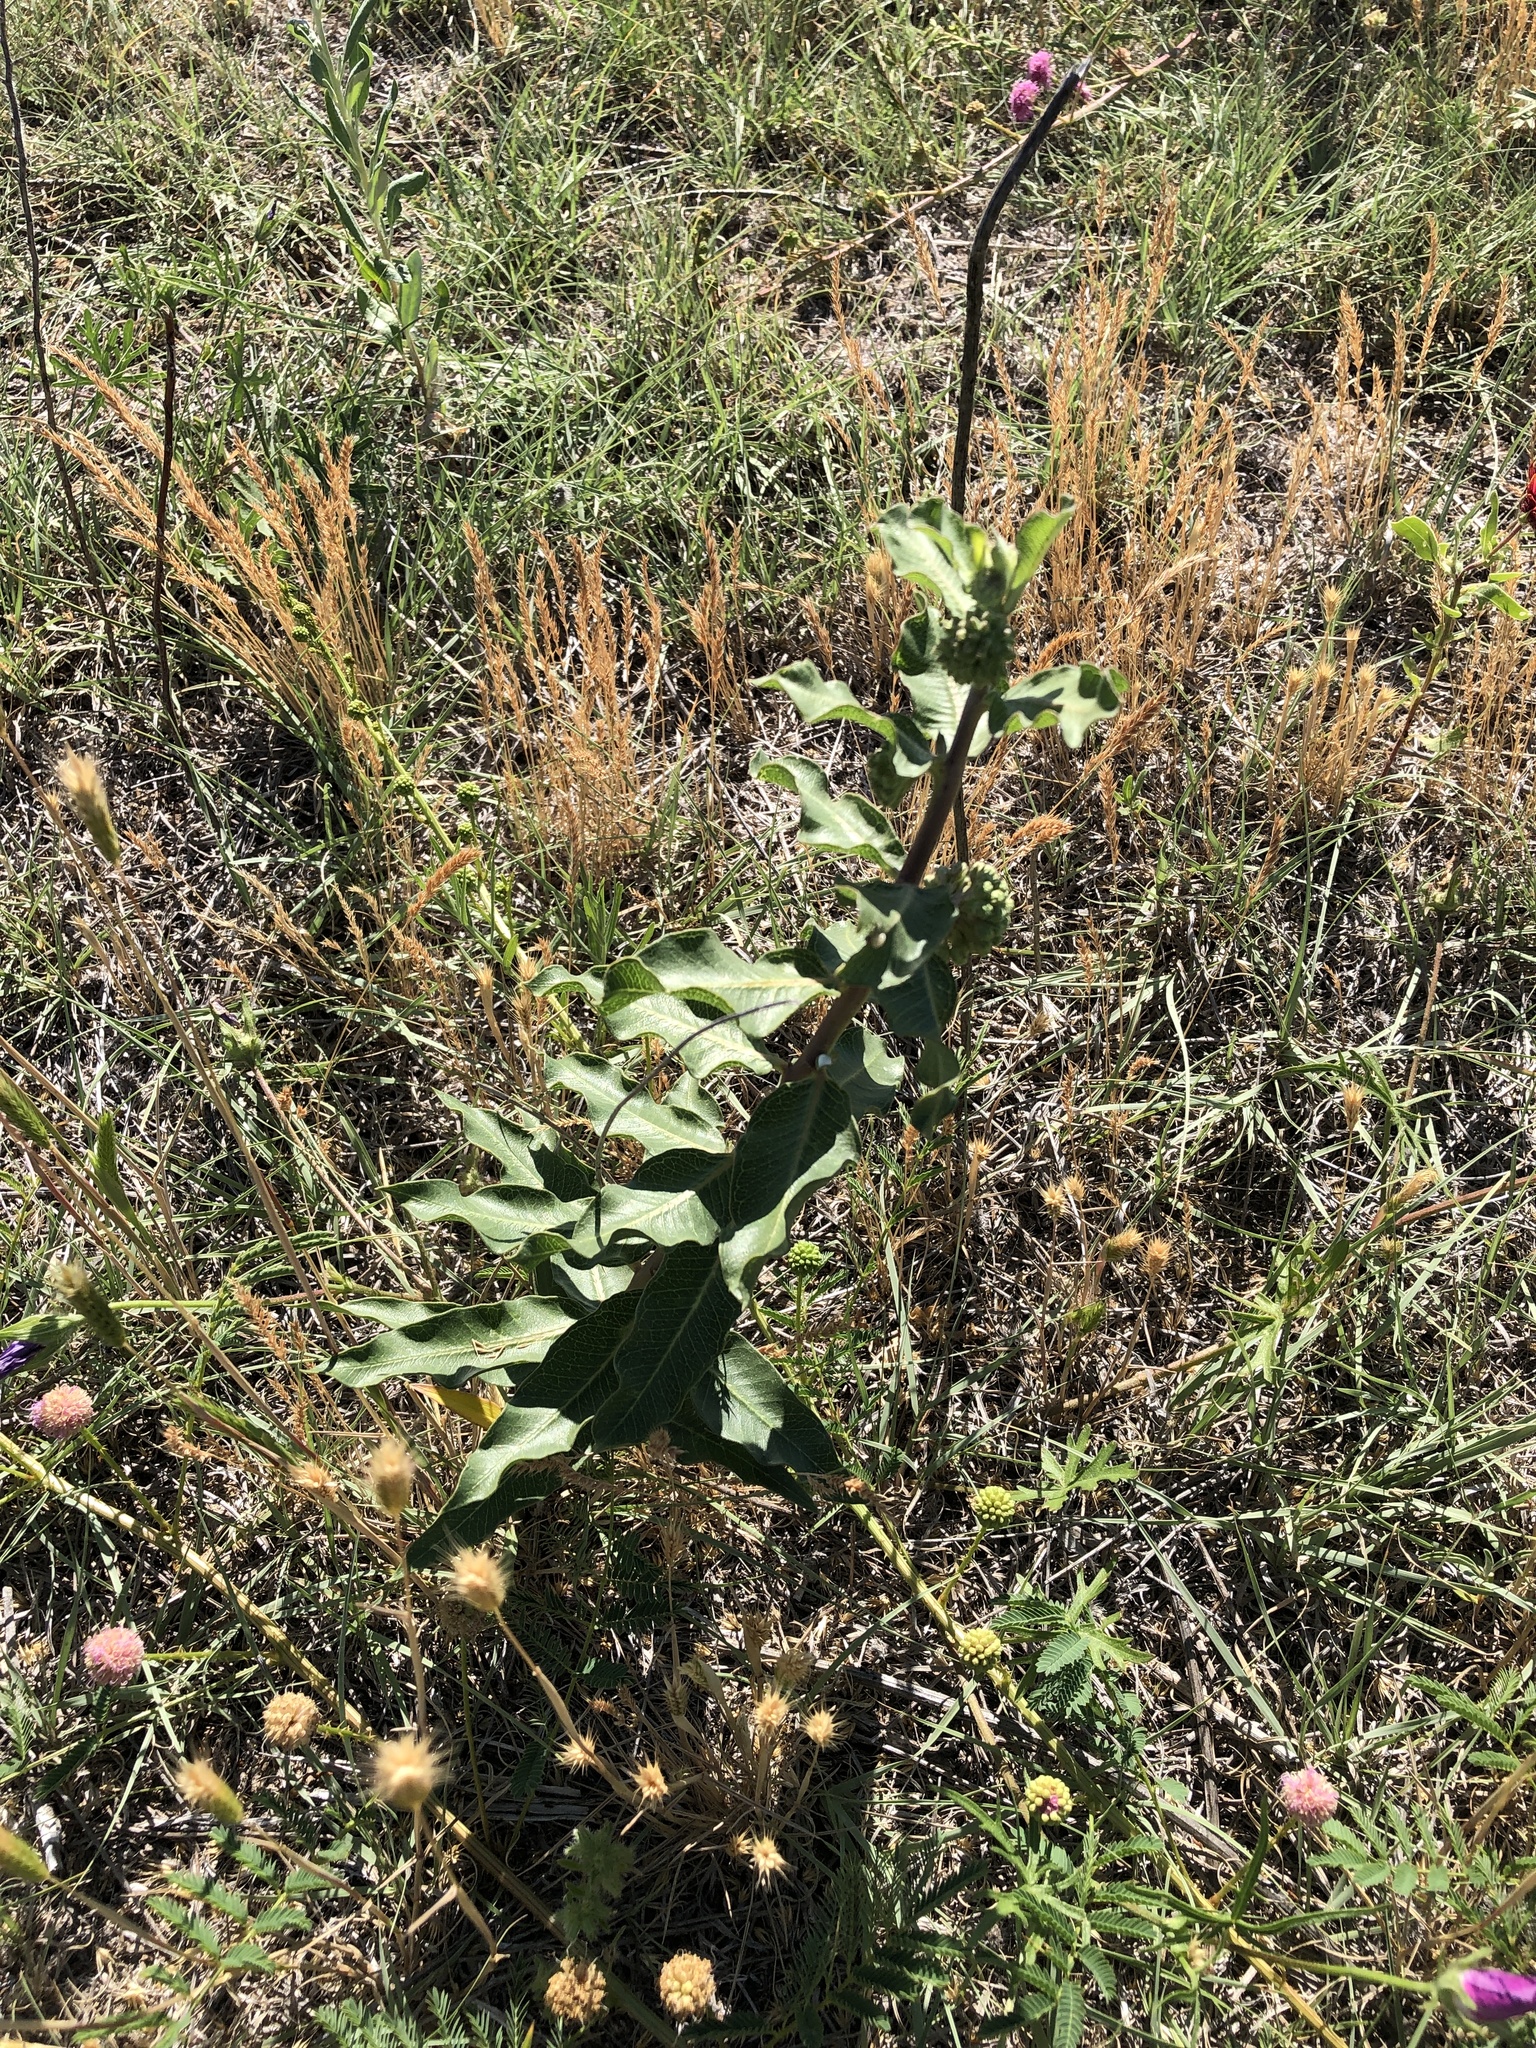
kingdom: Plantae
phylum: Tracheophyta
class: Magnoliopsida
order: Gentianales
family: Apocynaceae
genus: Asclepias
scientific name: Asclepias arenaria
